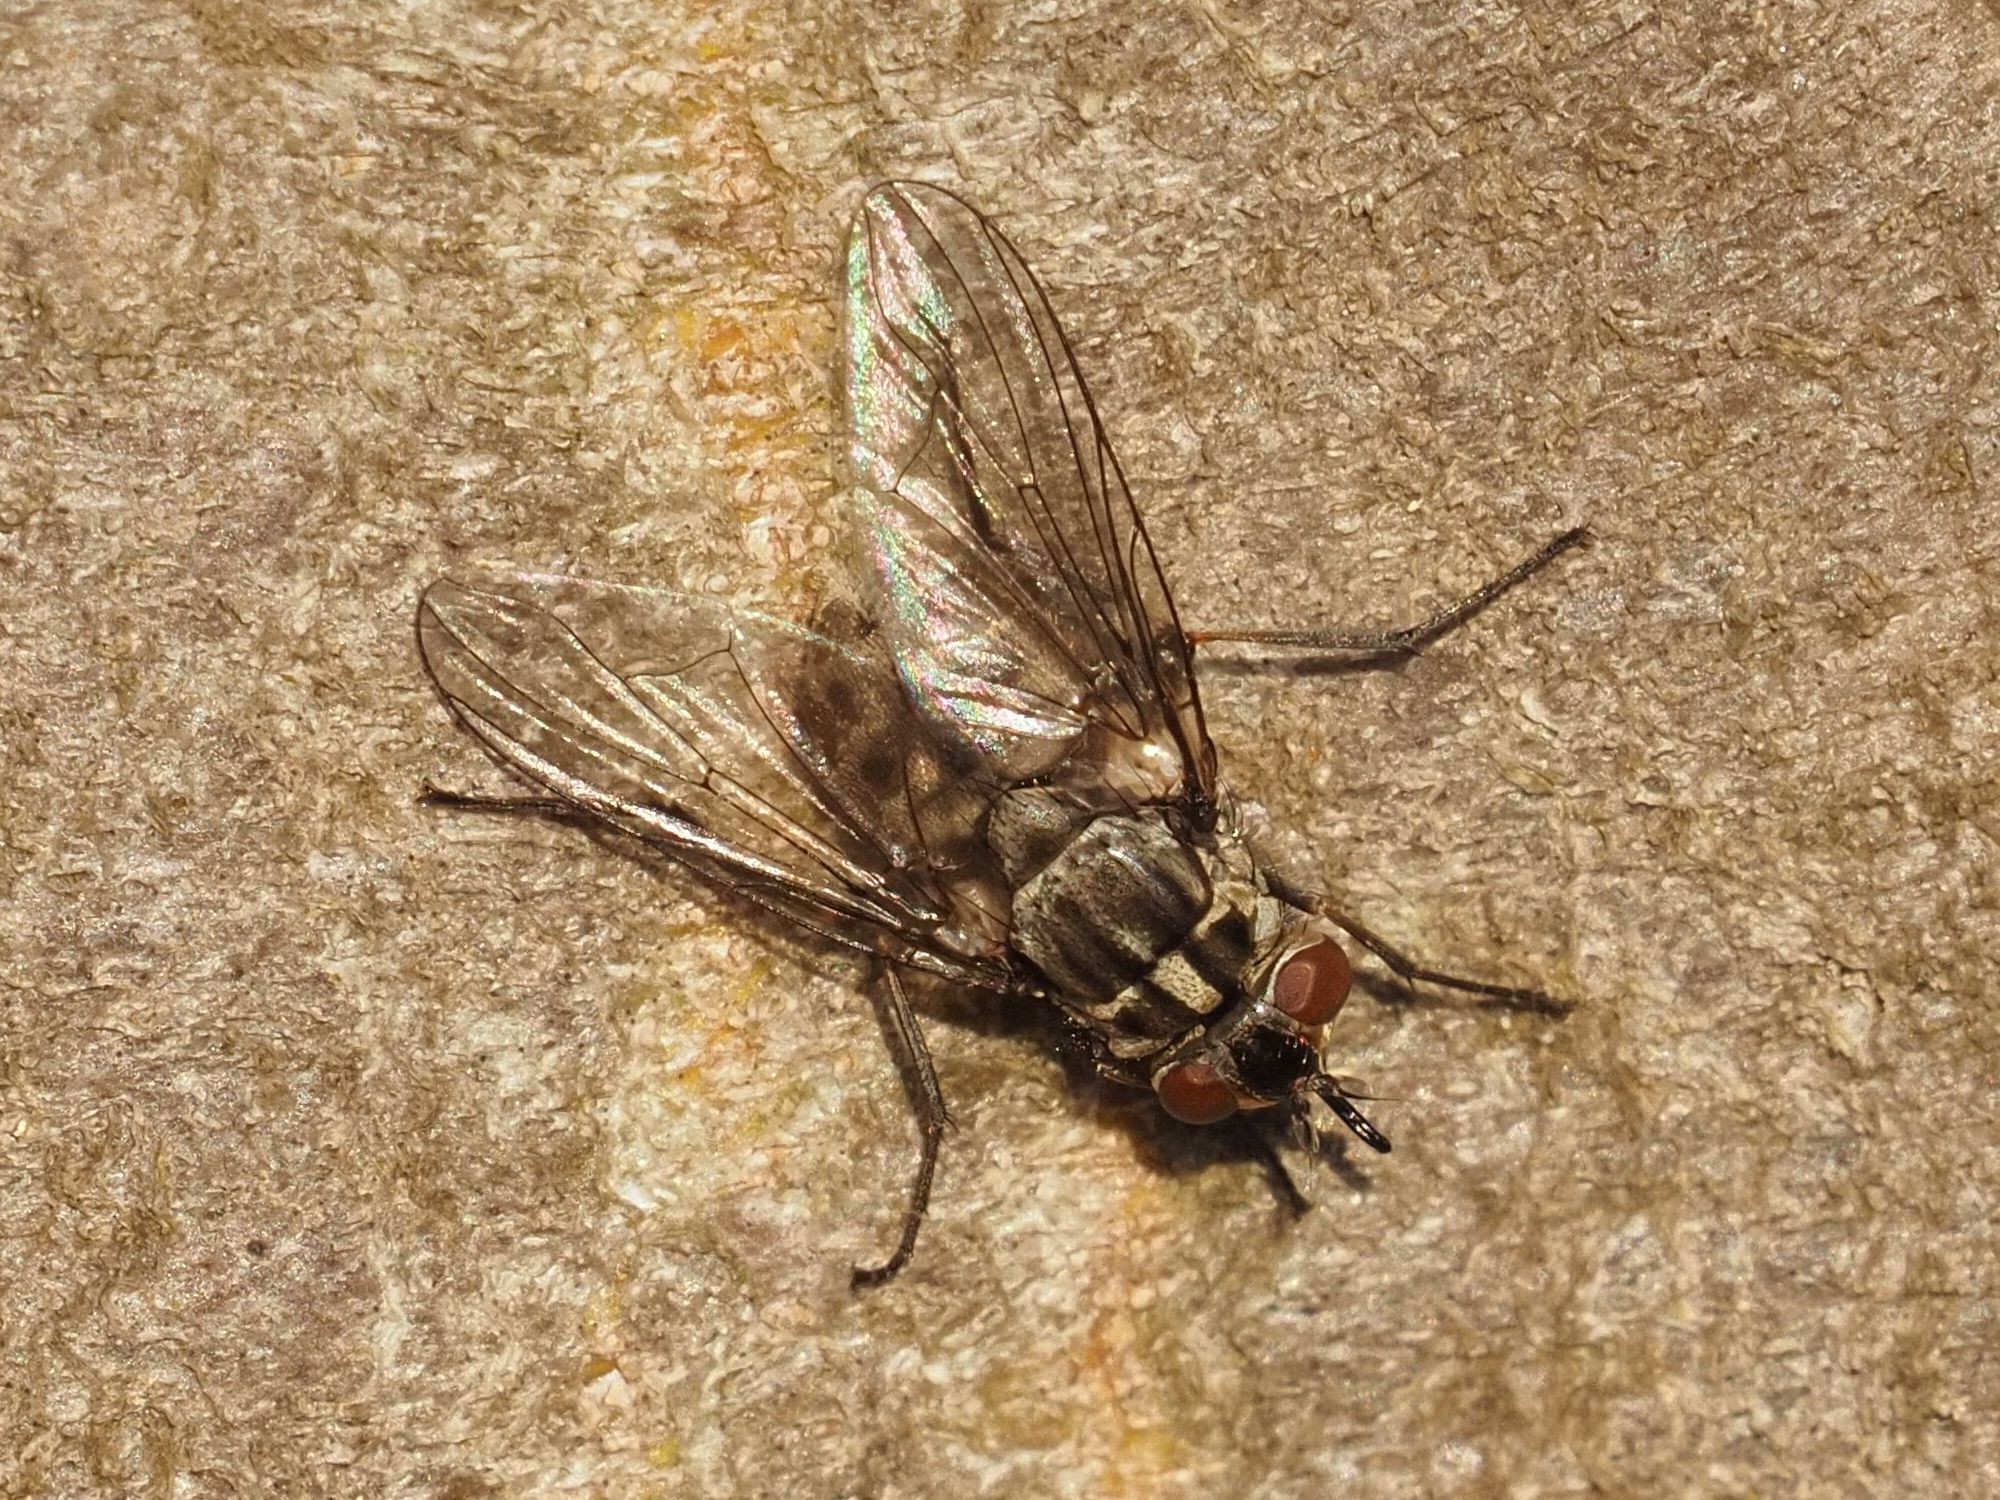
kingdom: Animalia
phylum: Arthropoda
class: Insecta
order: Diptera
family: Muscidae
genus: Stomoxys
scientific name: Stomoxys calcitrans
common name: Stable fly
